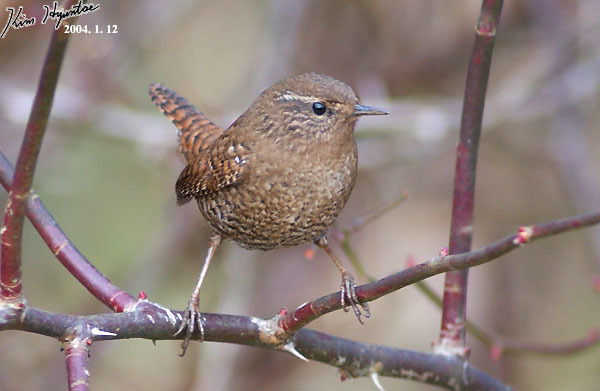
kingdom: Animalia
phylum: Chordata
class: Aves
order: Passeriformes
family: Troglodytidae
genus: Troglodytes
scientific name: Troglodytes troglodytes
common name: Eurasian wren
